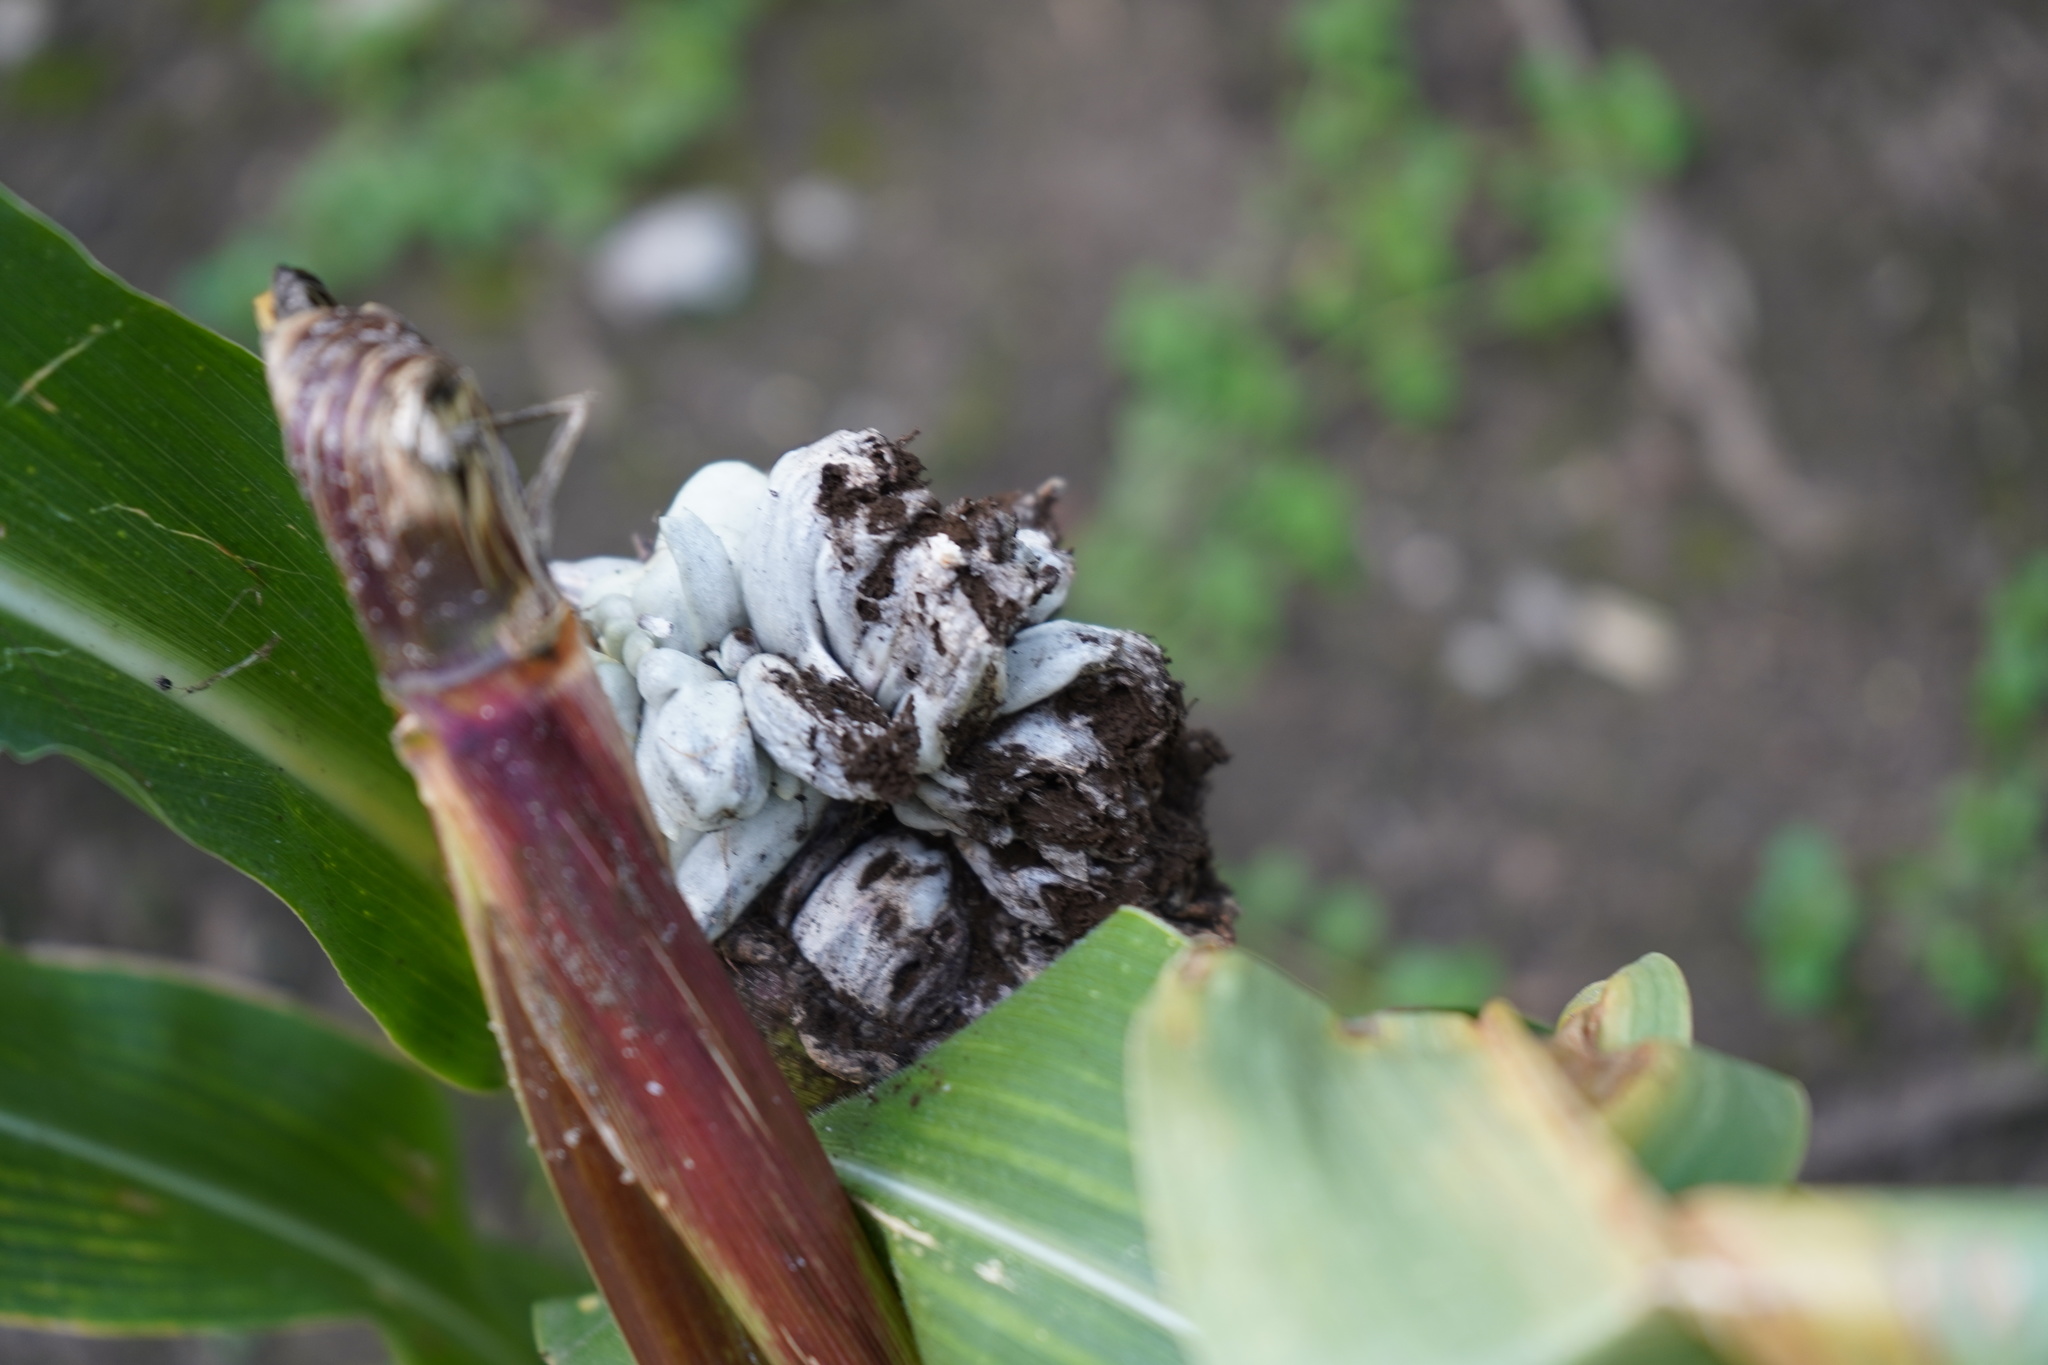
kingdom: Fungi
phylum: Basidiomycota
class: Ustilaginomycetes
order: Ustilaginales
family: Ustilaginaceae
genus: Mycosarcoma
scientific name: Mycosarcoma maydis
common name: Corn smut
